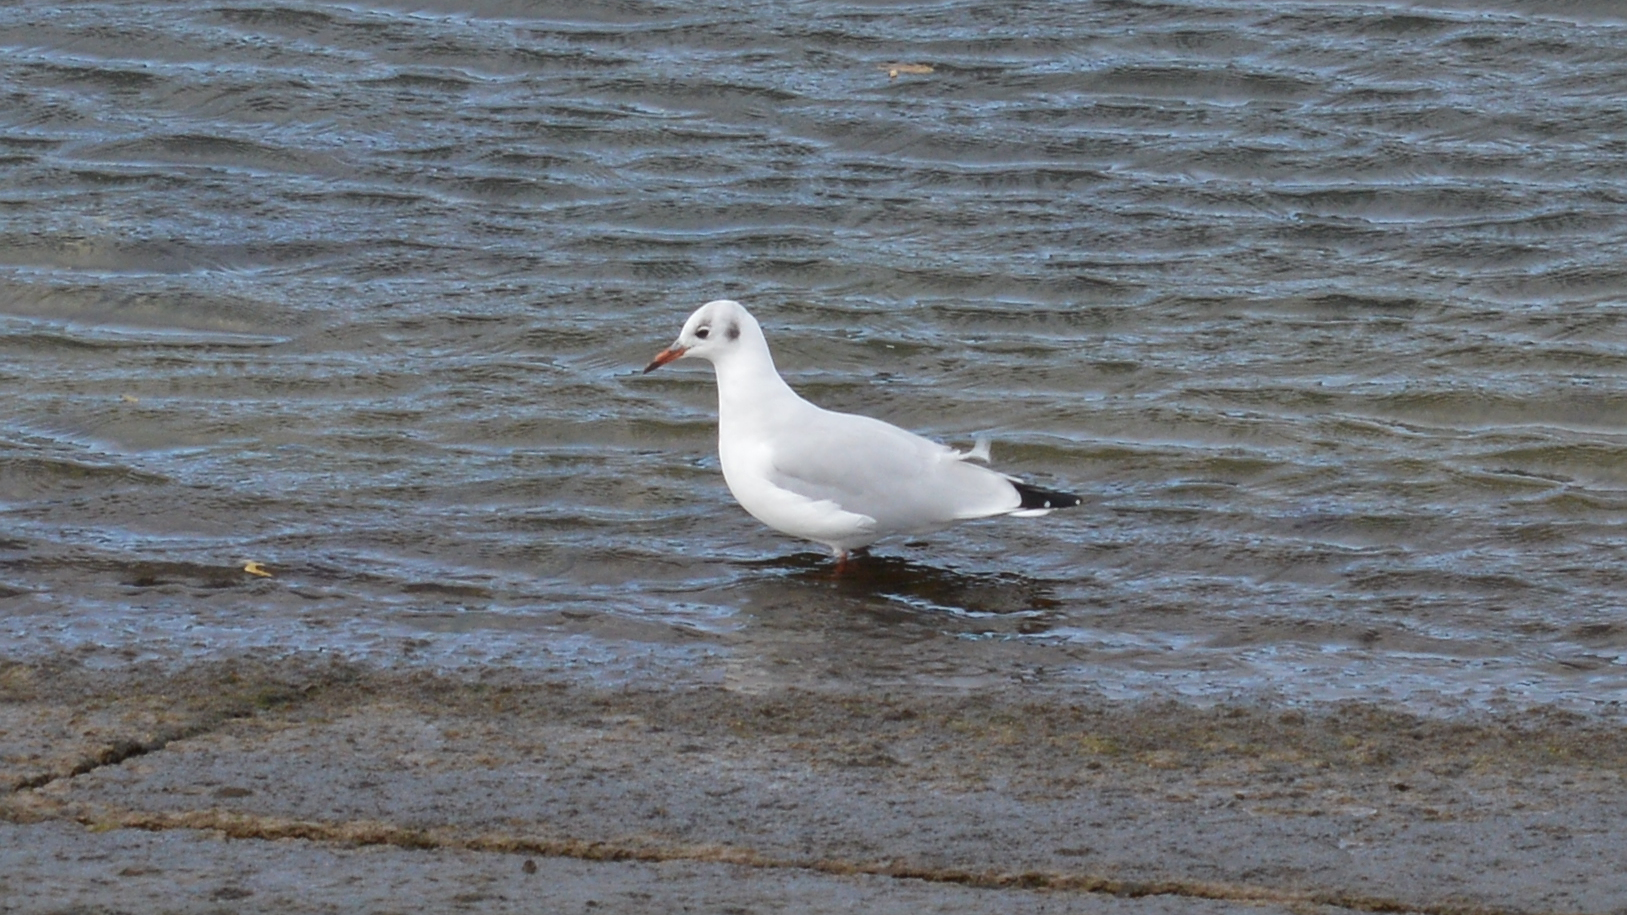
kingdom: Animalia
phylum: Chordata
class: Aves
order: Charadriiformes
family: Laridae
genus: Chroicocephalus
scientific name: Chroicocephalus ridibundus
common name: Black-headed gull
